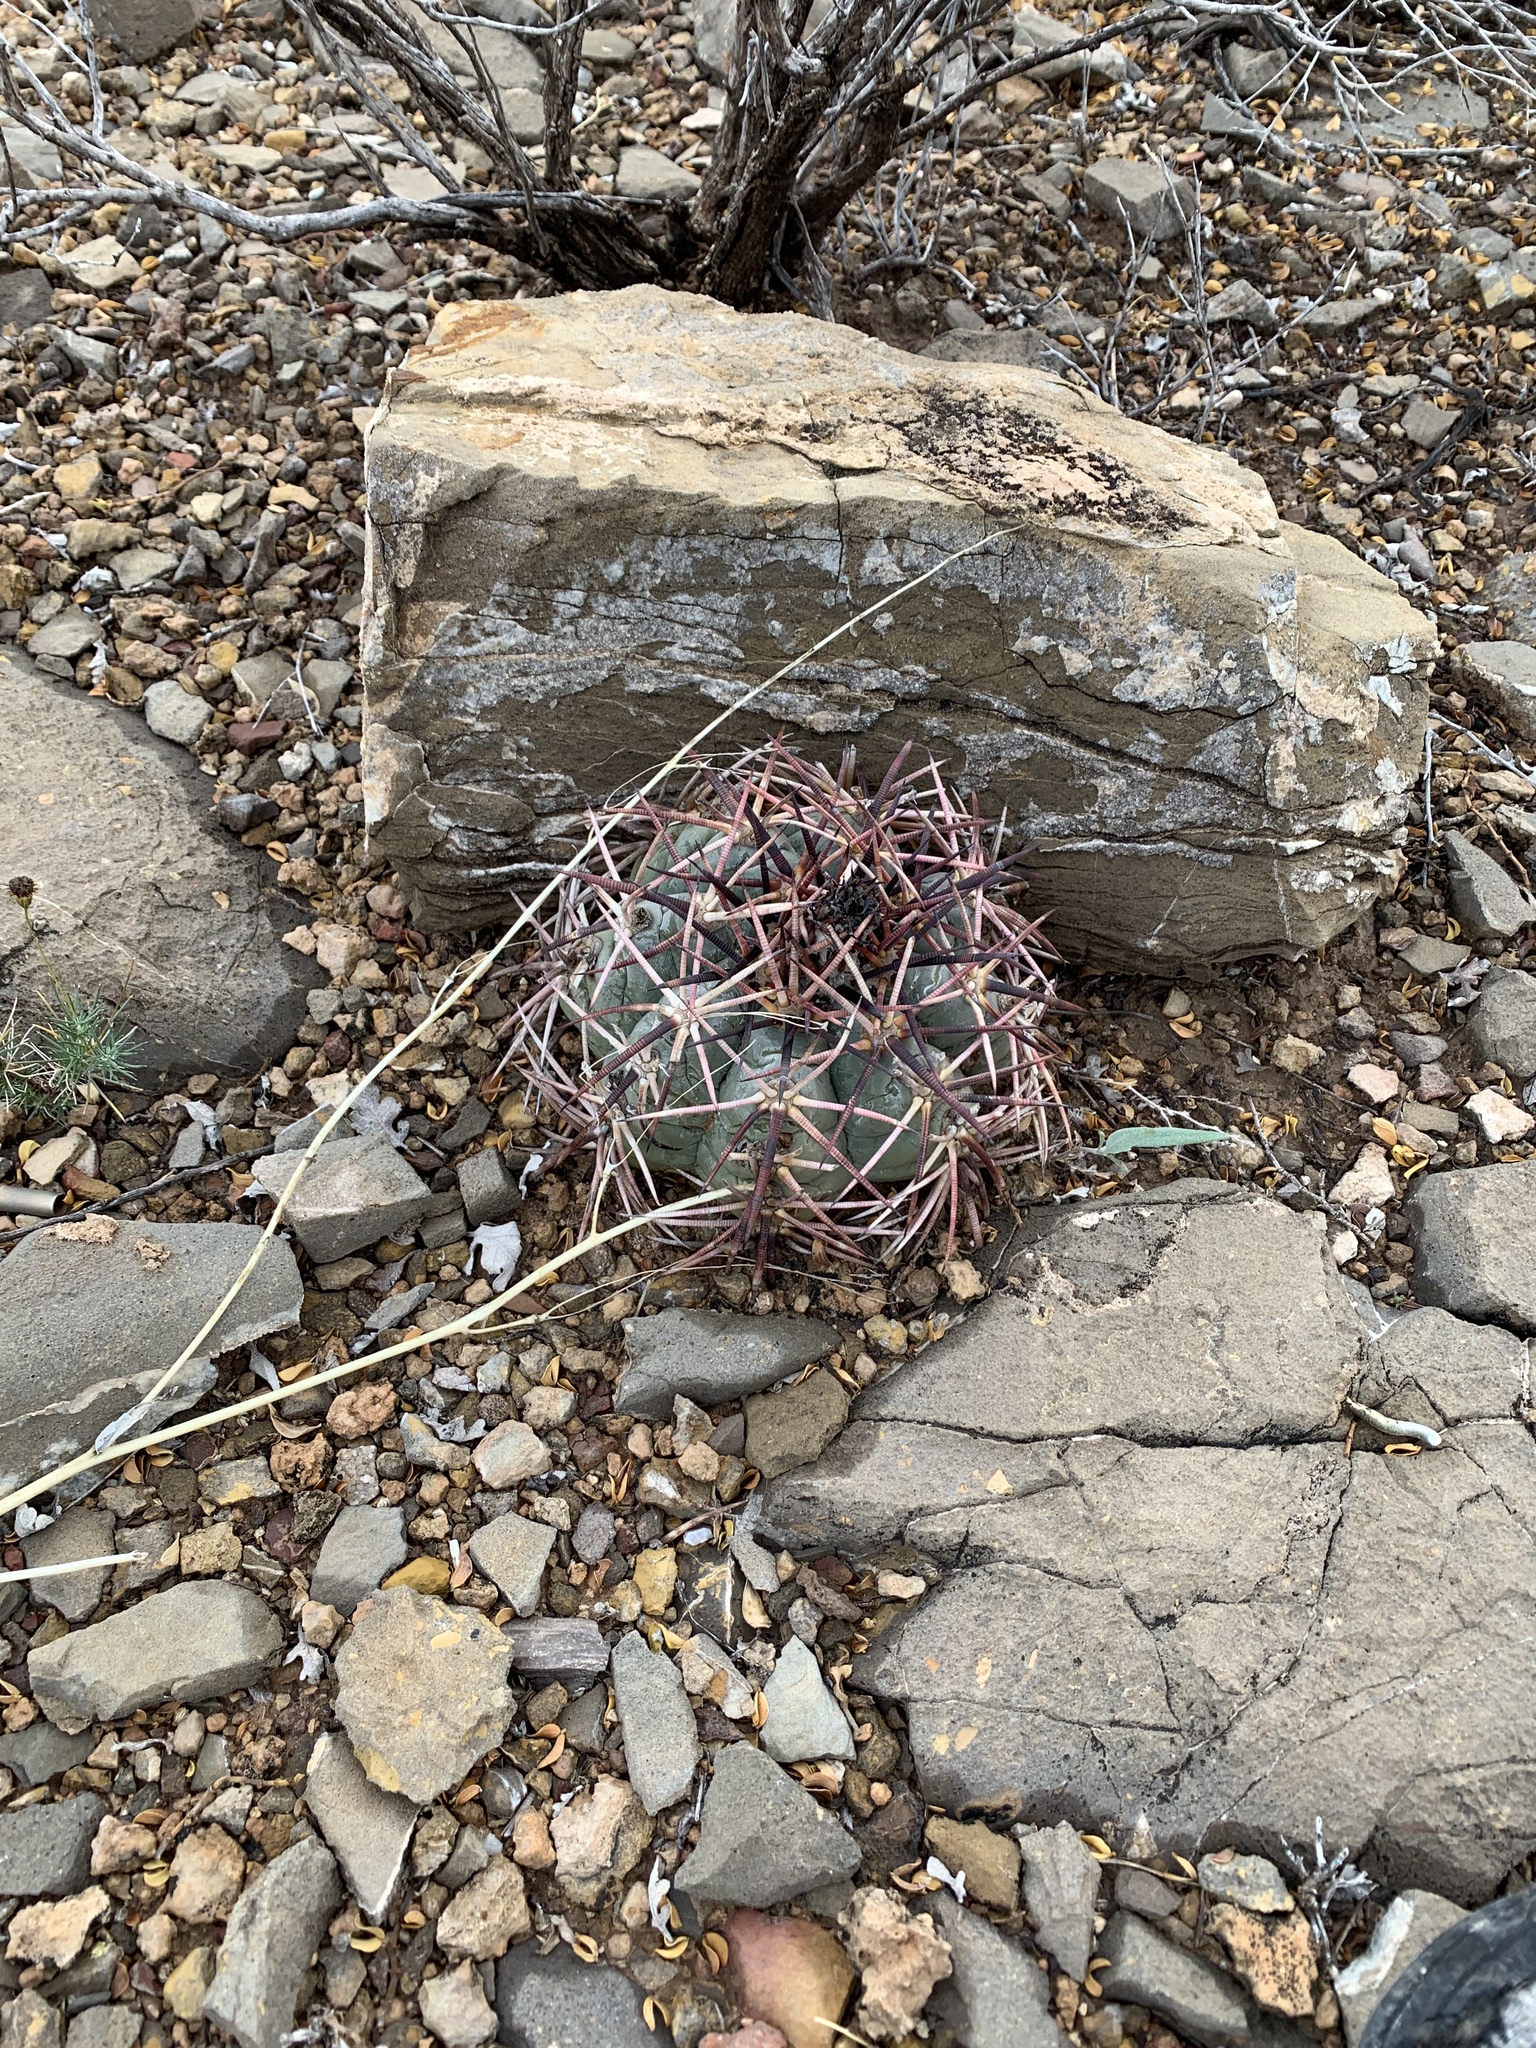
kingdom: Plantae
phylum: Tracheophyta
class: Magnoliopsida
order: Caryophyllales
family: Cactaceae
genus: Echinocactus
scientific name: Echinocactus horizonthalonius
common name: Devilshead
